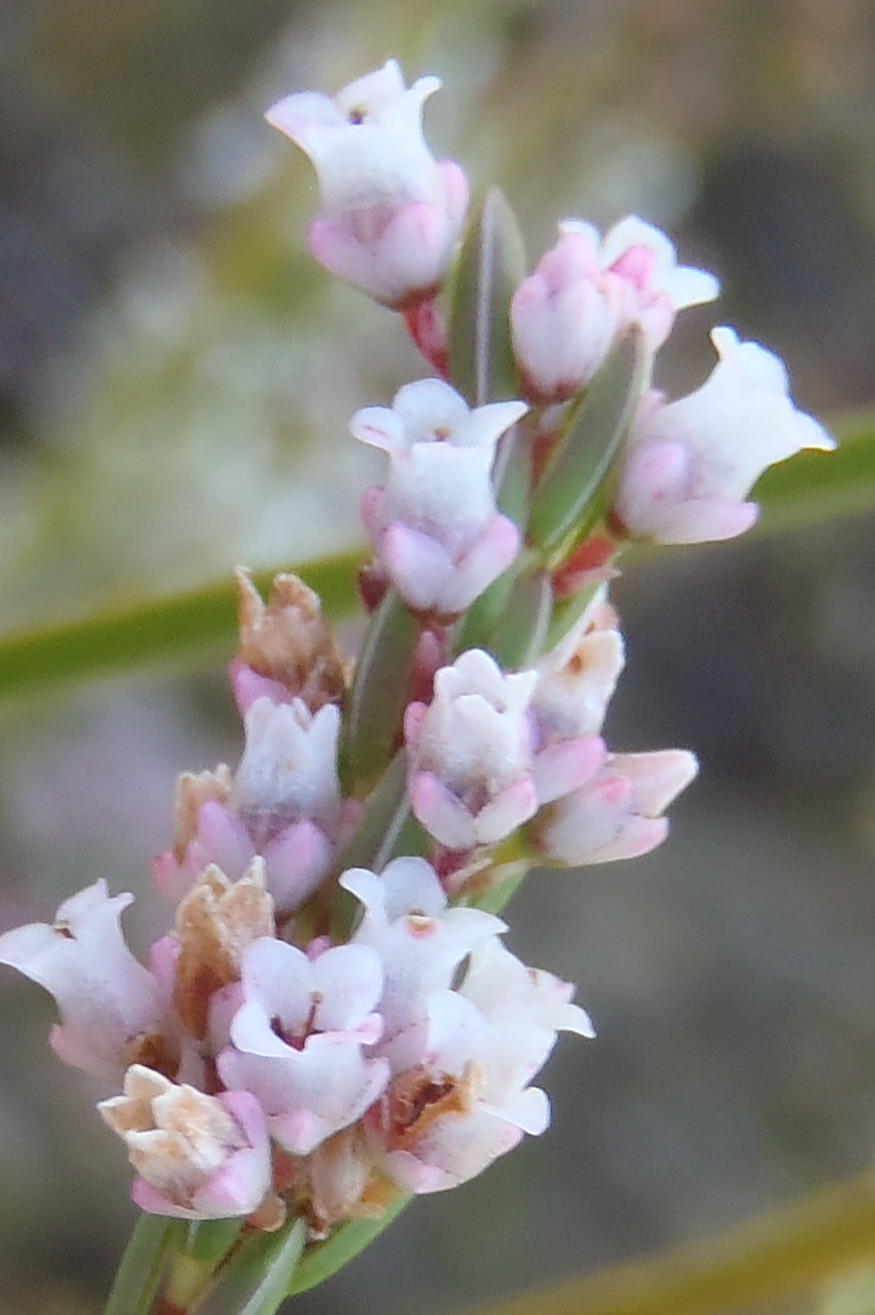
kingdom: Plantae
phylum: Tracheophyta
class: Magnoliopsida
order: Ericales
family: Ericaceae
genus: Erica
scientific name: Erica articularis
